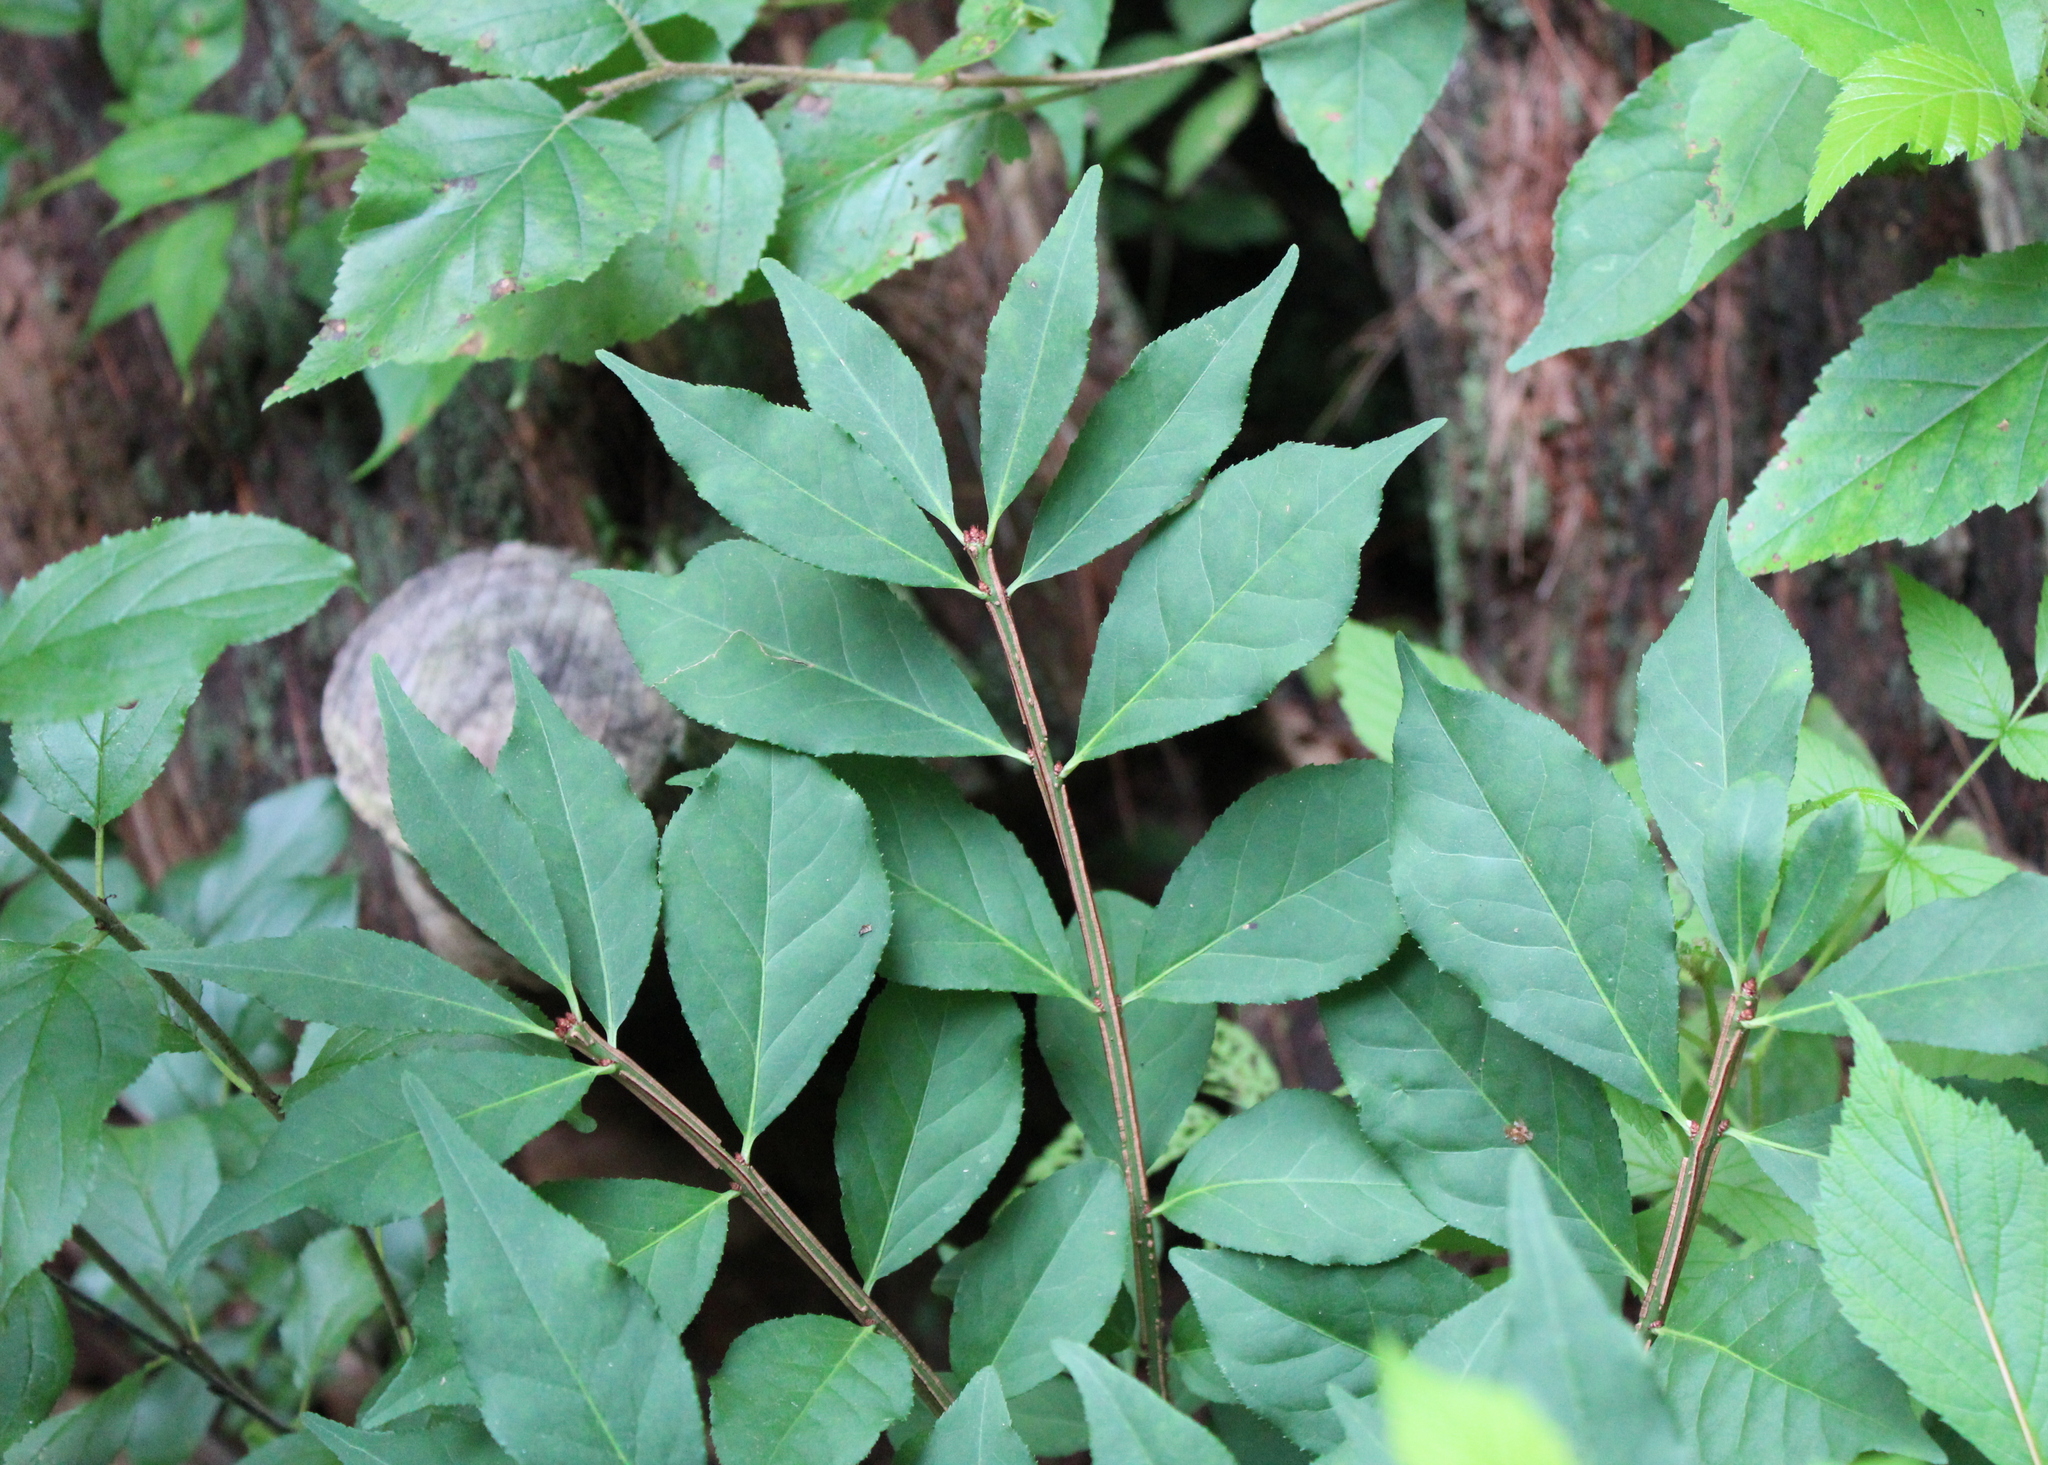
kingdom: Plantae
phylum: Tracheophyta
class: Magnoliopsida
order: Celastrales
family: Celastraceae
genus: Euonymus
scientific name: Euonymus alatus
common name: Winged euonymus
